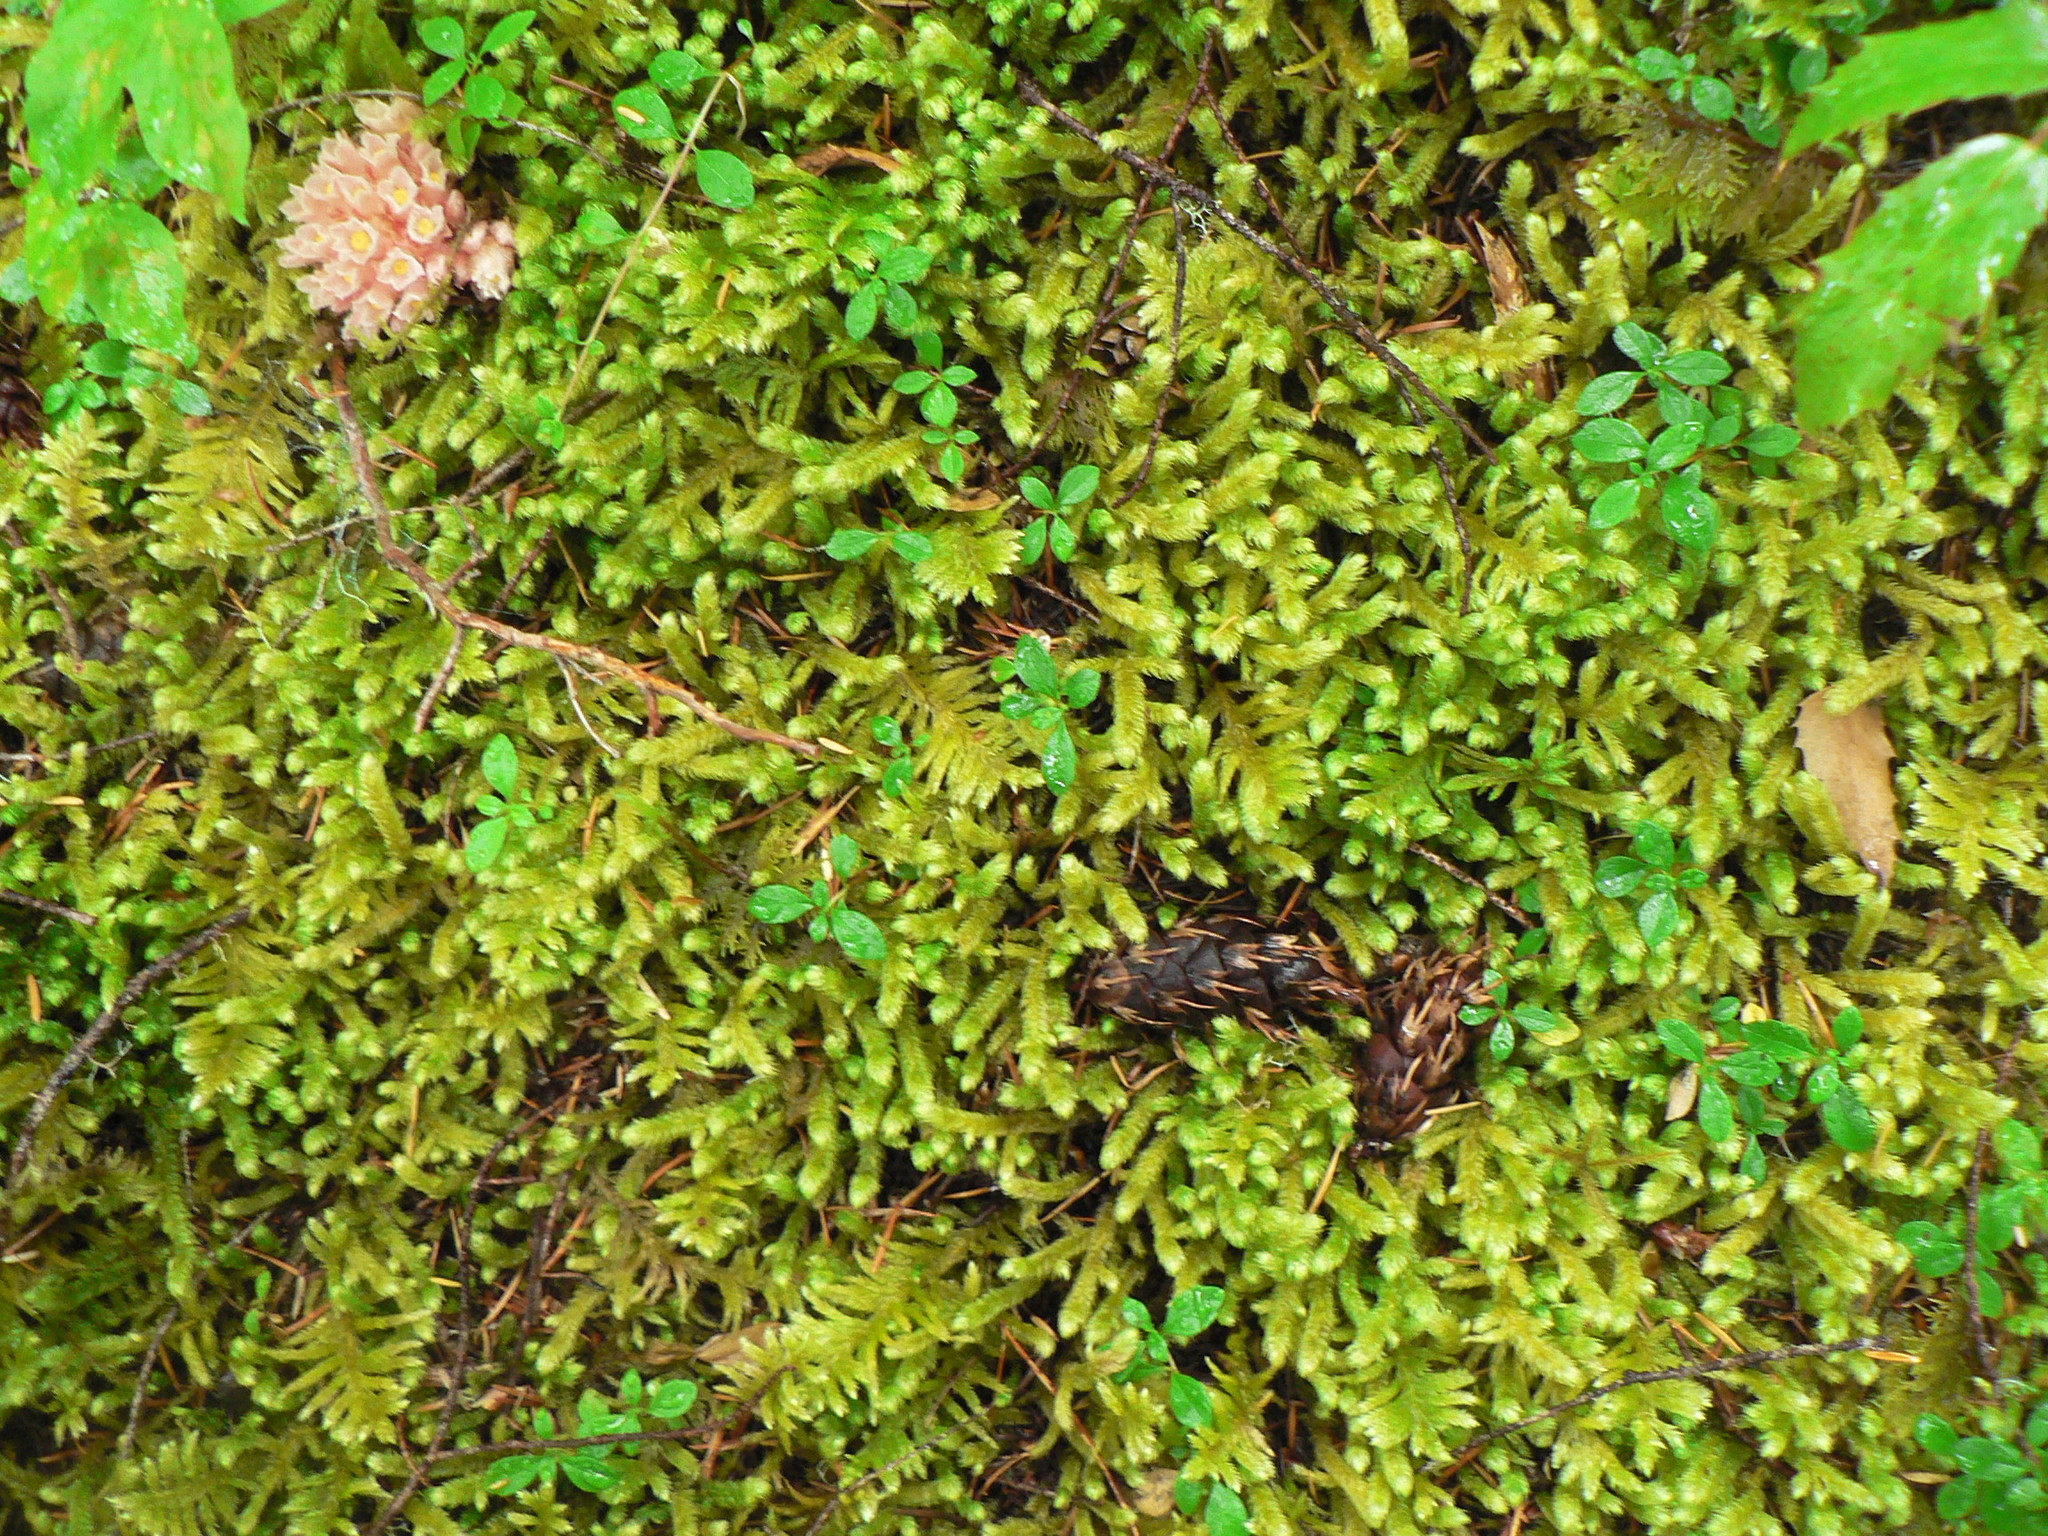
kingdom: Plantae
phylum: Bryophyta
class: Bryopsida
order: Hypnales
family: Hylocomiaceae
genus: Rhytidiopsis
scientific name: Rhytidiopsis robusta
